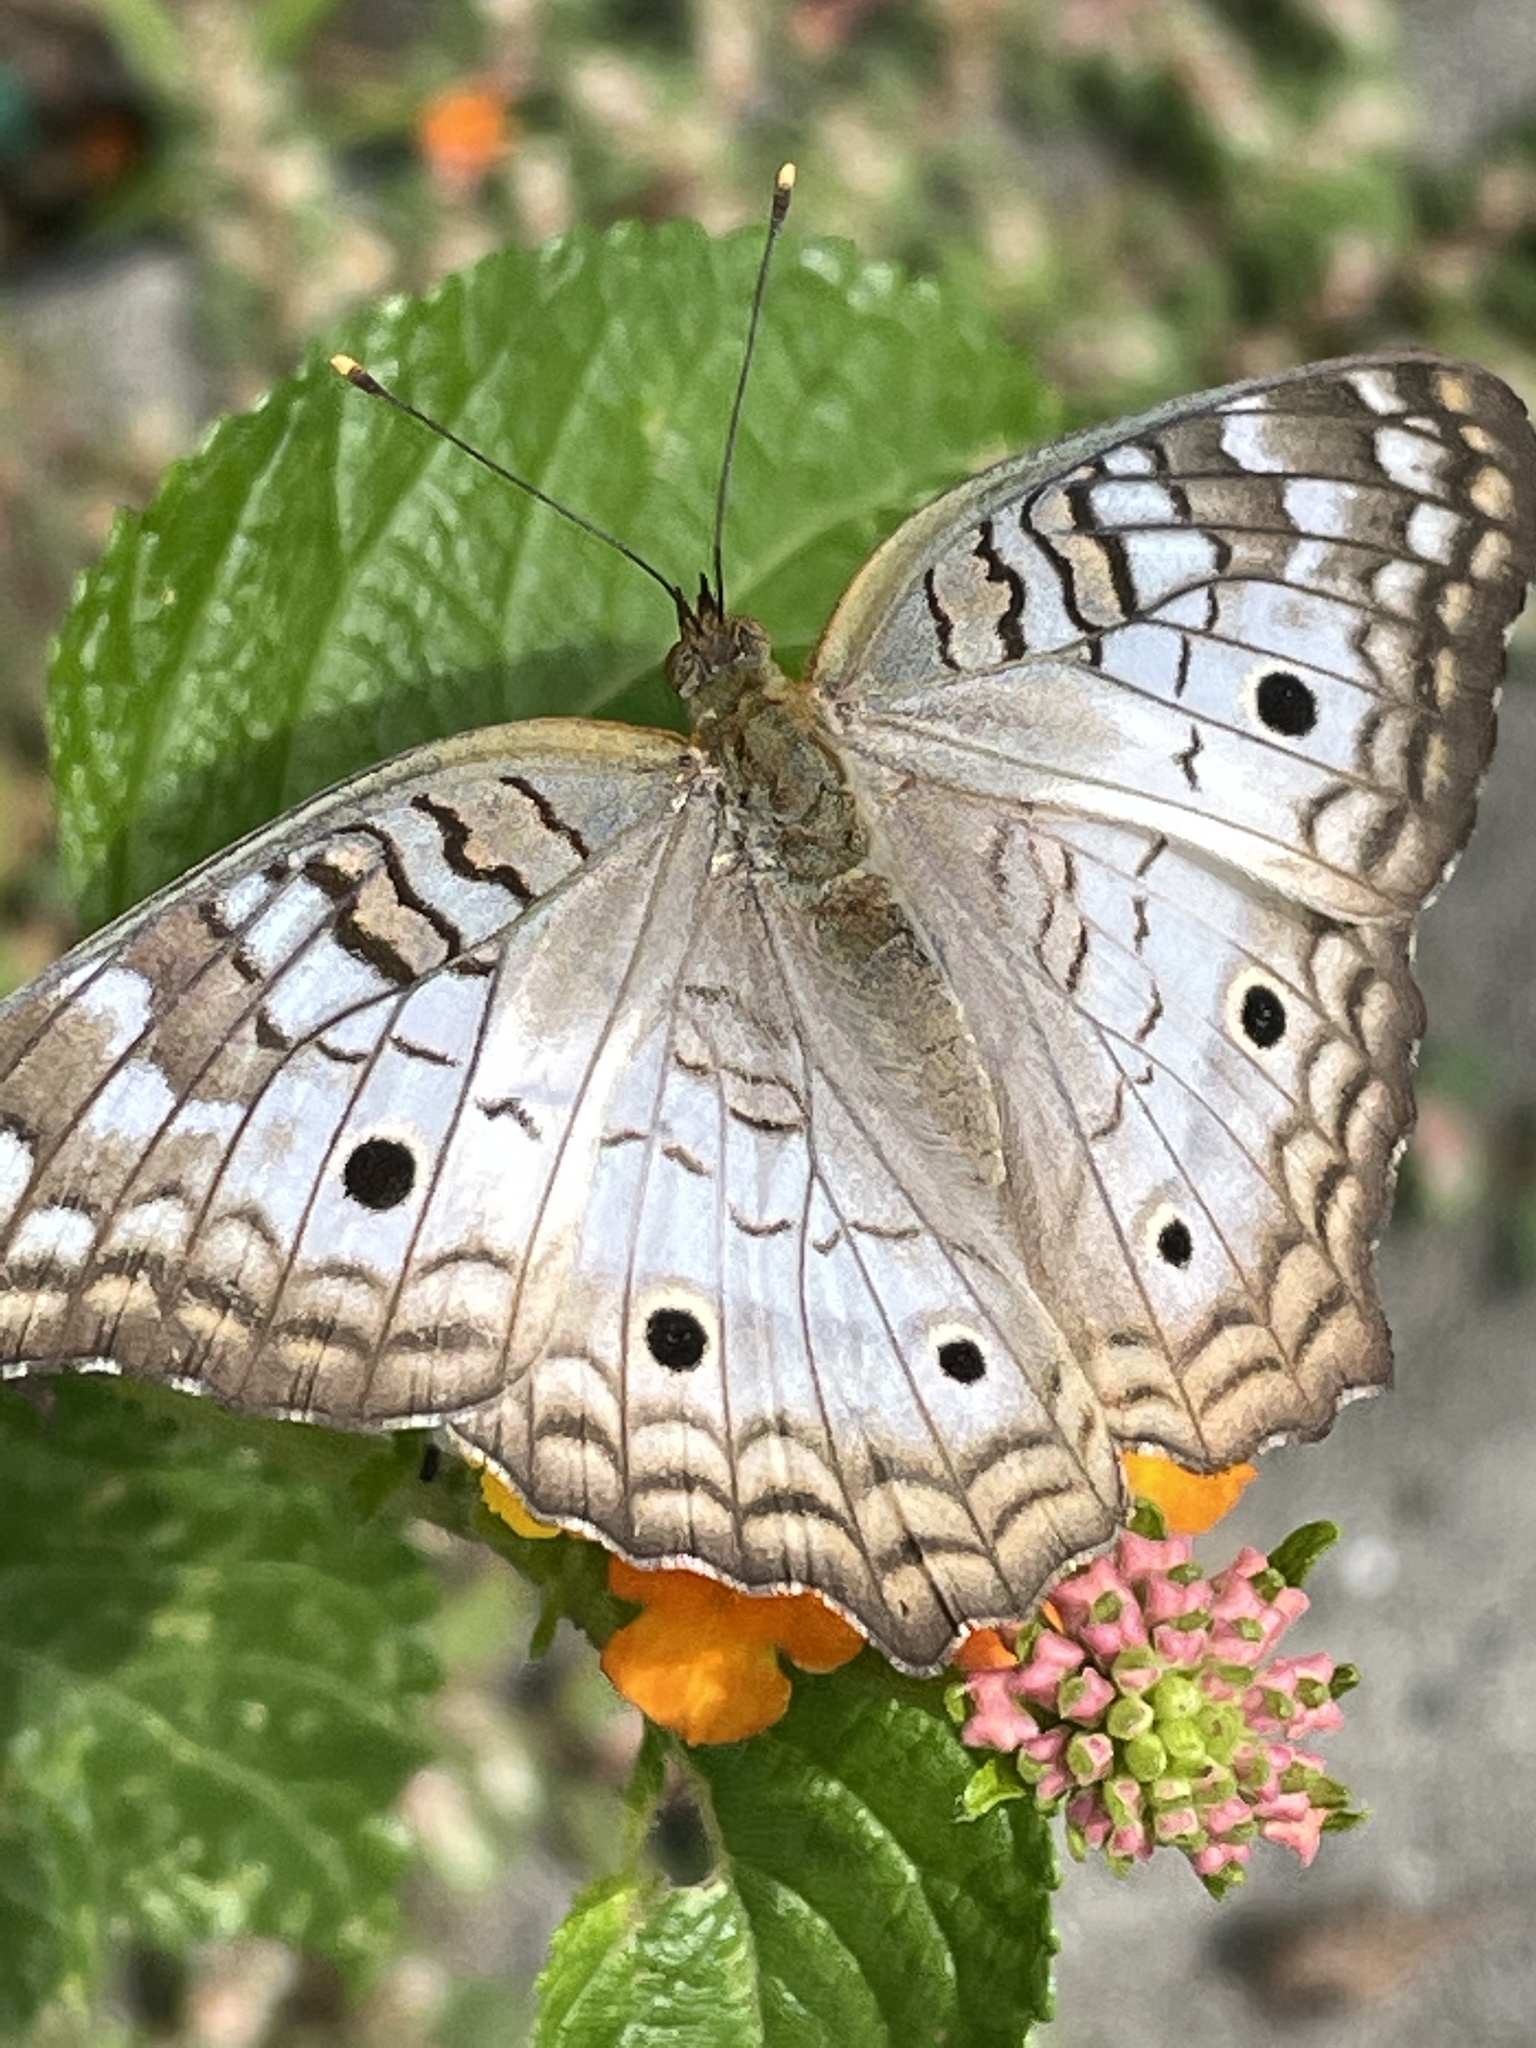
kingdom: Animalia
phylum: Arthropoda
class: Insecta
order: Lepidoptera
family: Nymphalidae
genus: Anartia
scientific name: Anartia jatrophae
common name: White peacock
